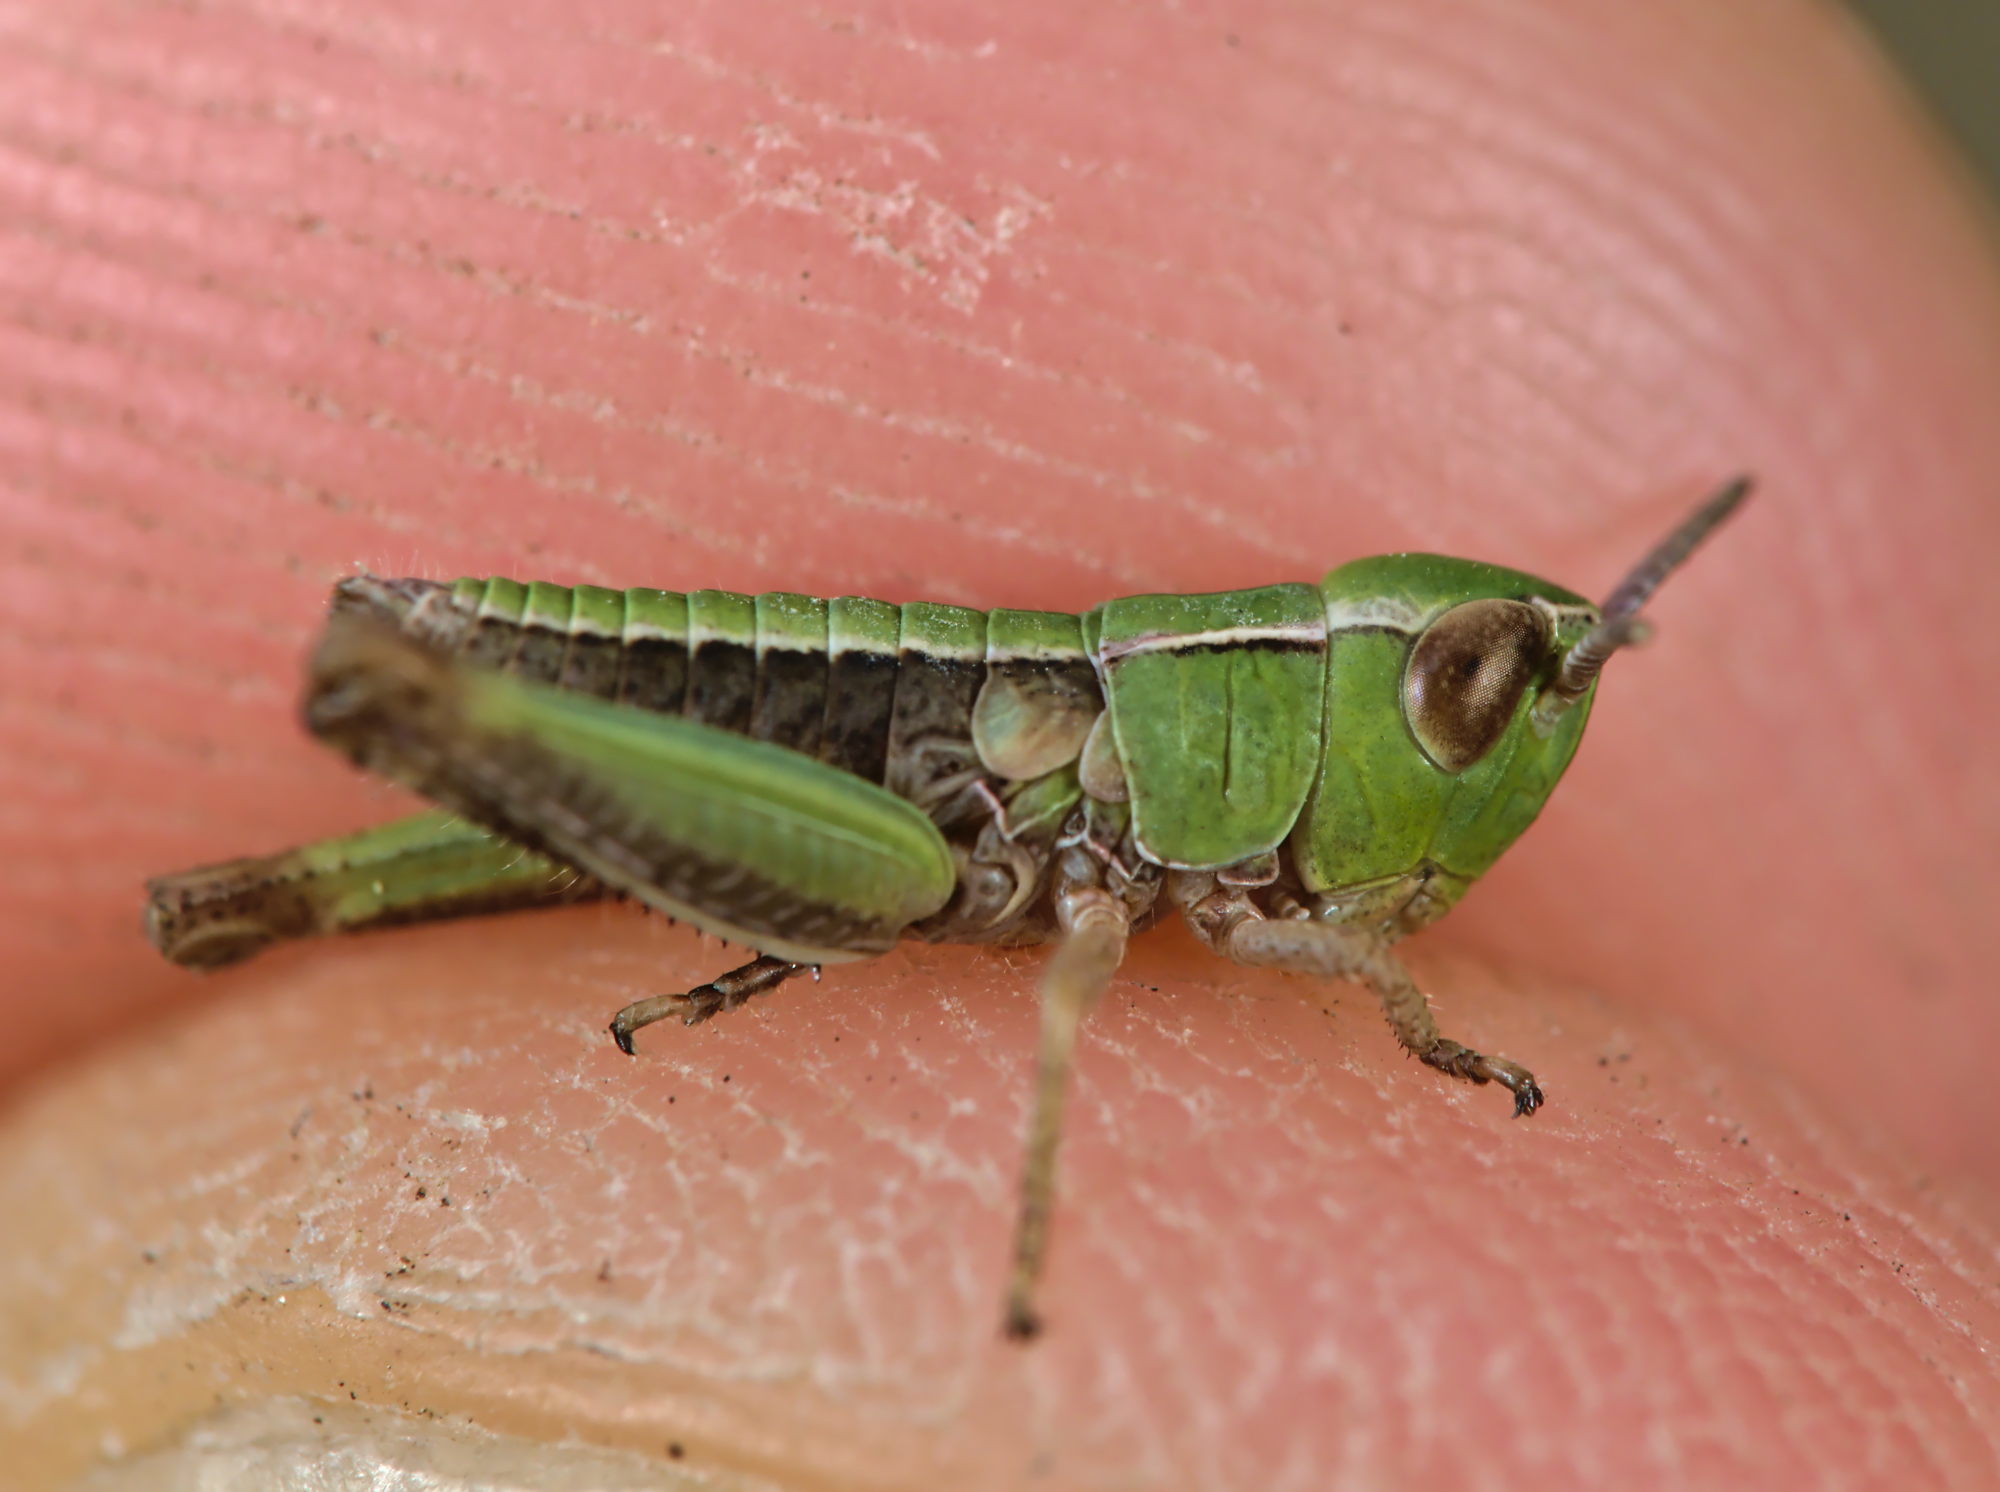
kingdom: Animalia
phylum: Arthropoda
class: Insecta
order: Orthoptera
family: Acrididae
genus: Stenobothrus
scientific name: Stenobothrus lineatus
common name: Stripe-winged grasshopper
